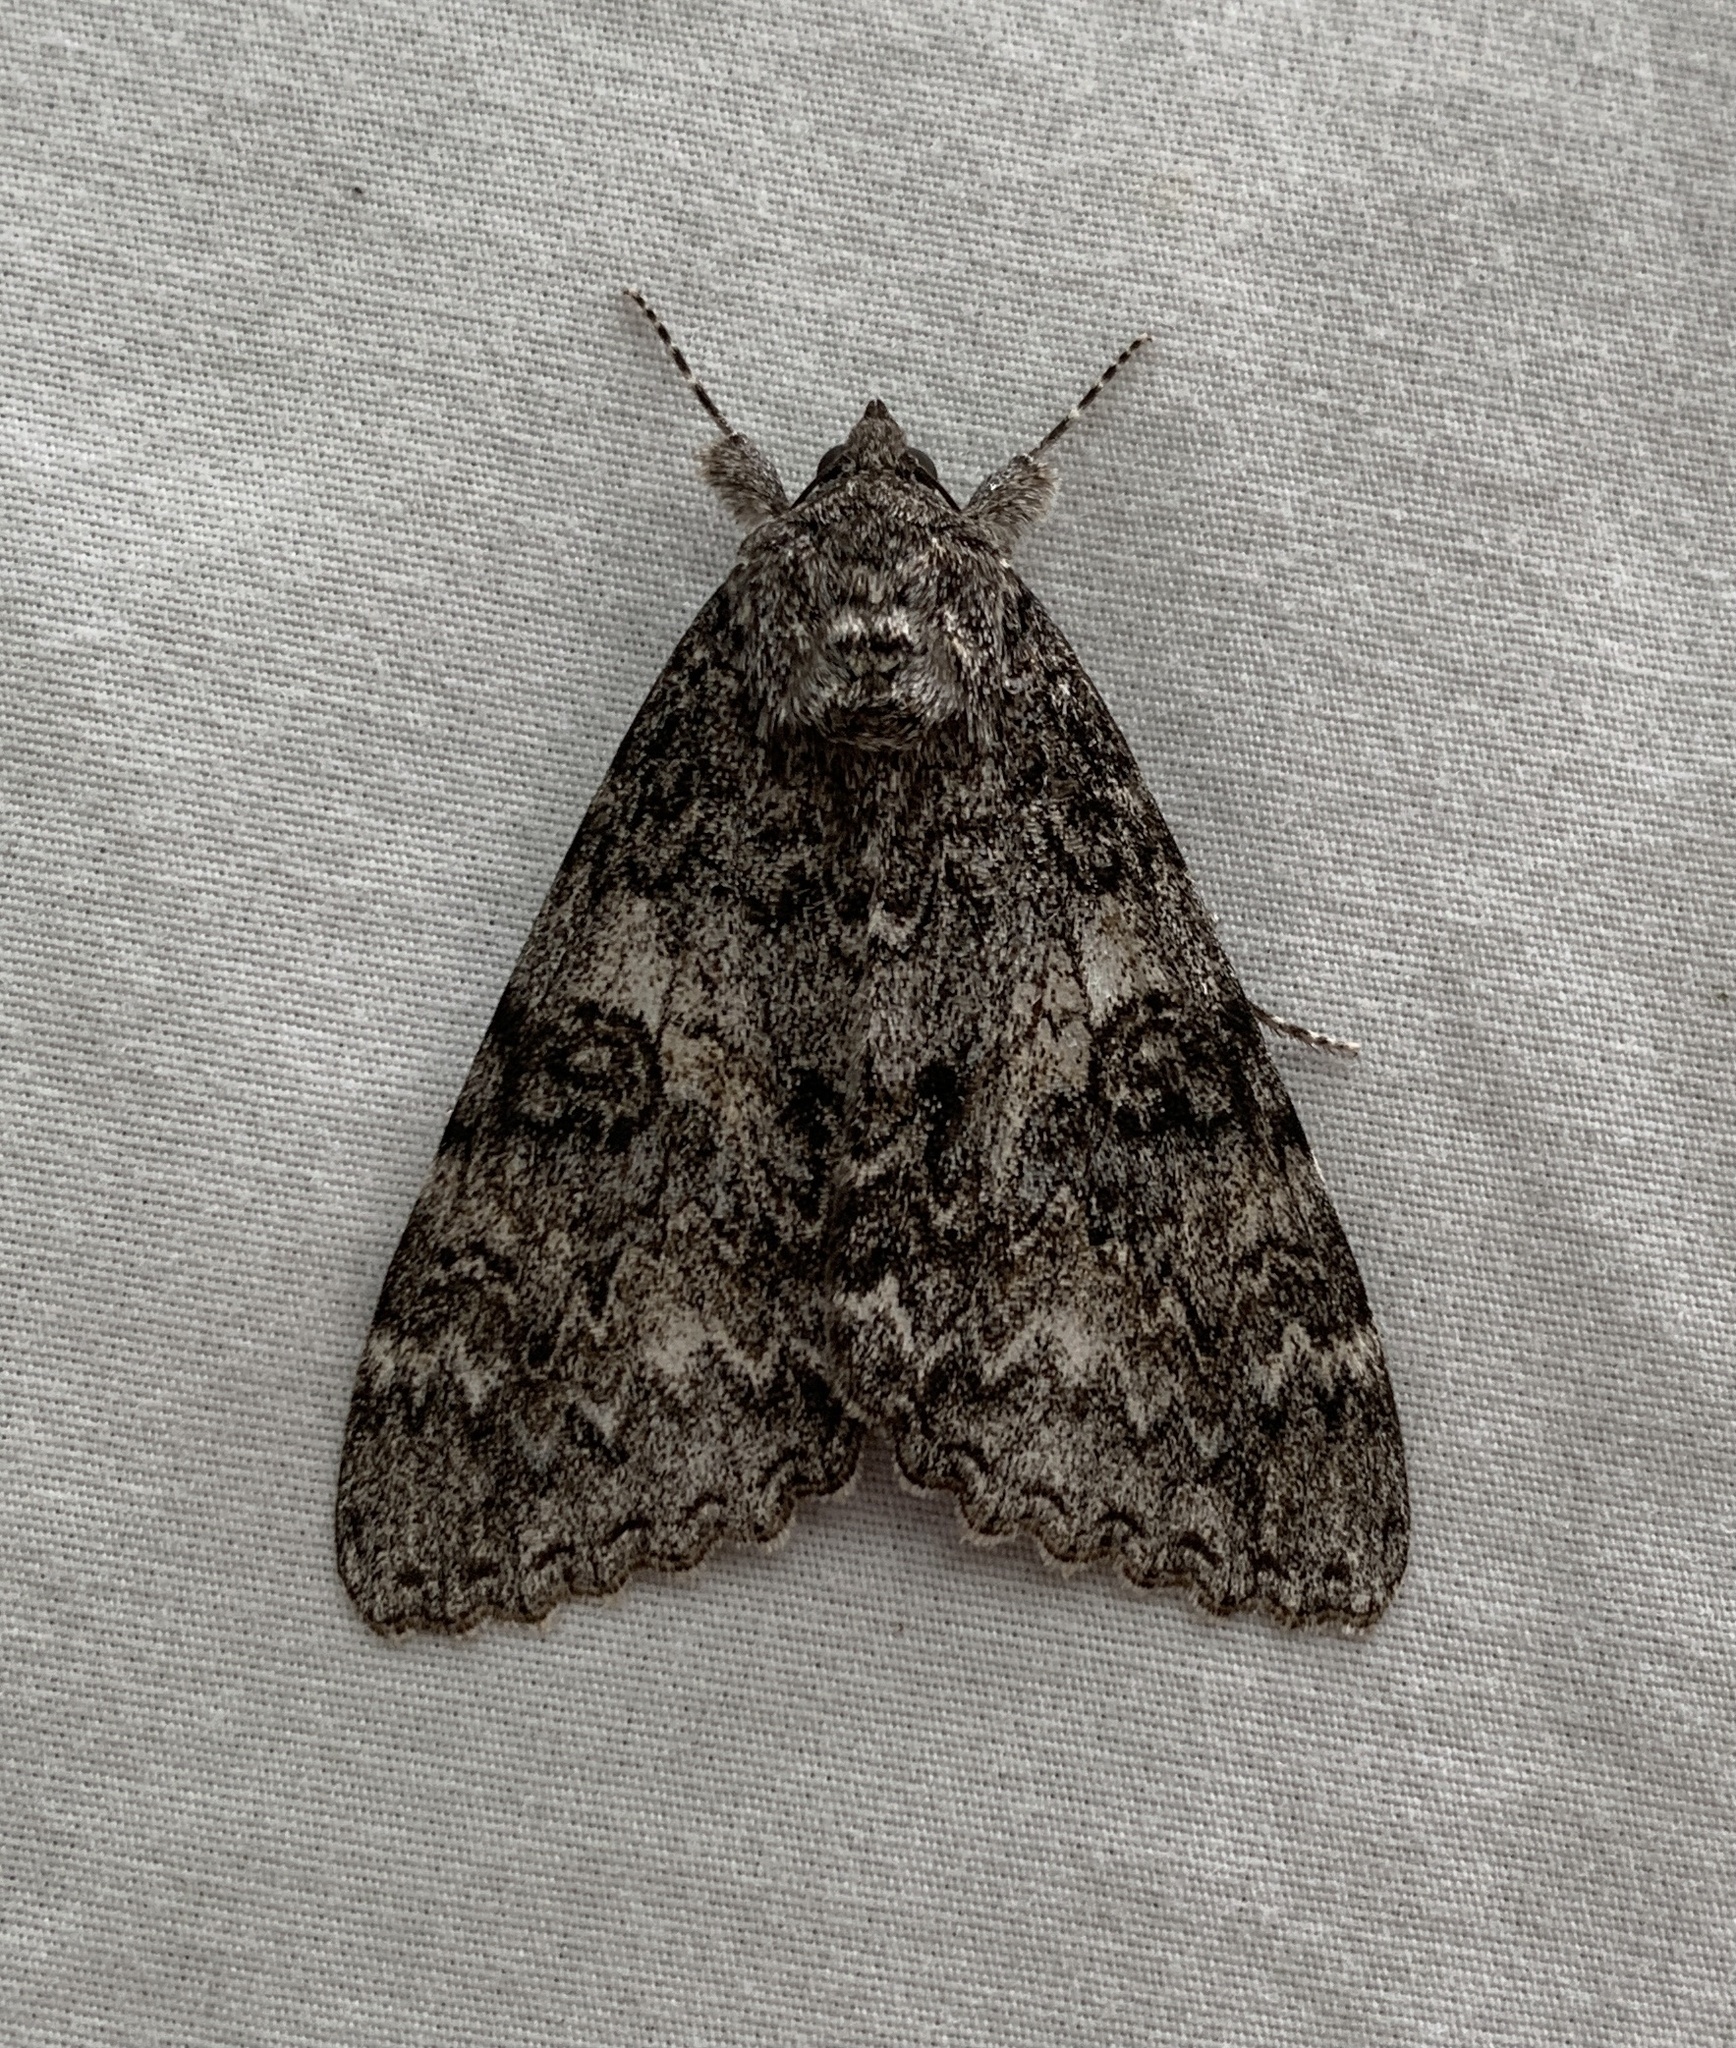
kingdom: Animalia
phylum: Arthropoda
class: Insecta
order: Lepidoptera
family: Erebidae
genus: Catocala
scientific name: Catocala unijuga
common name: Once-married underwing
